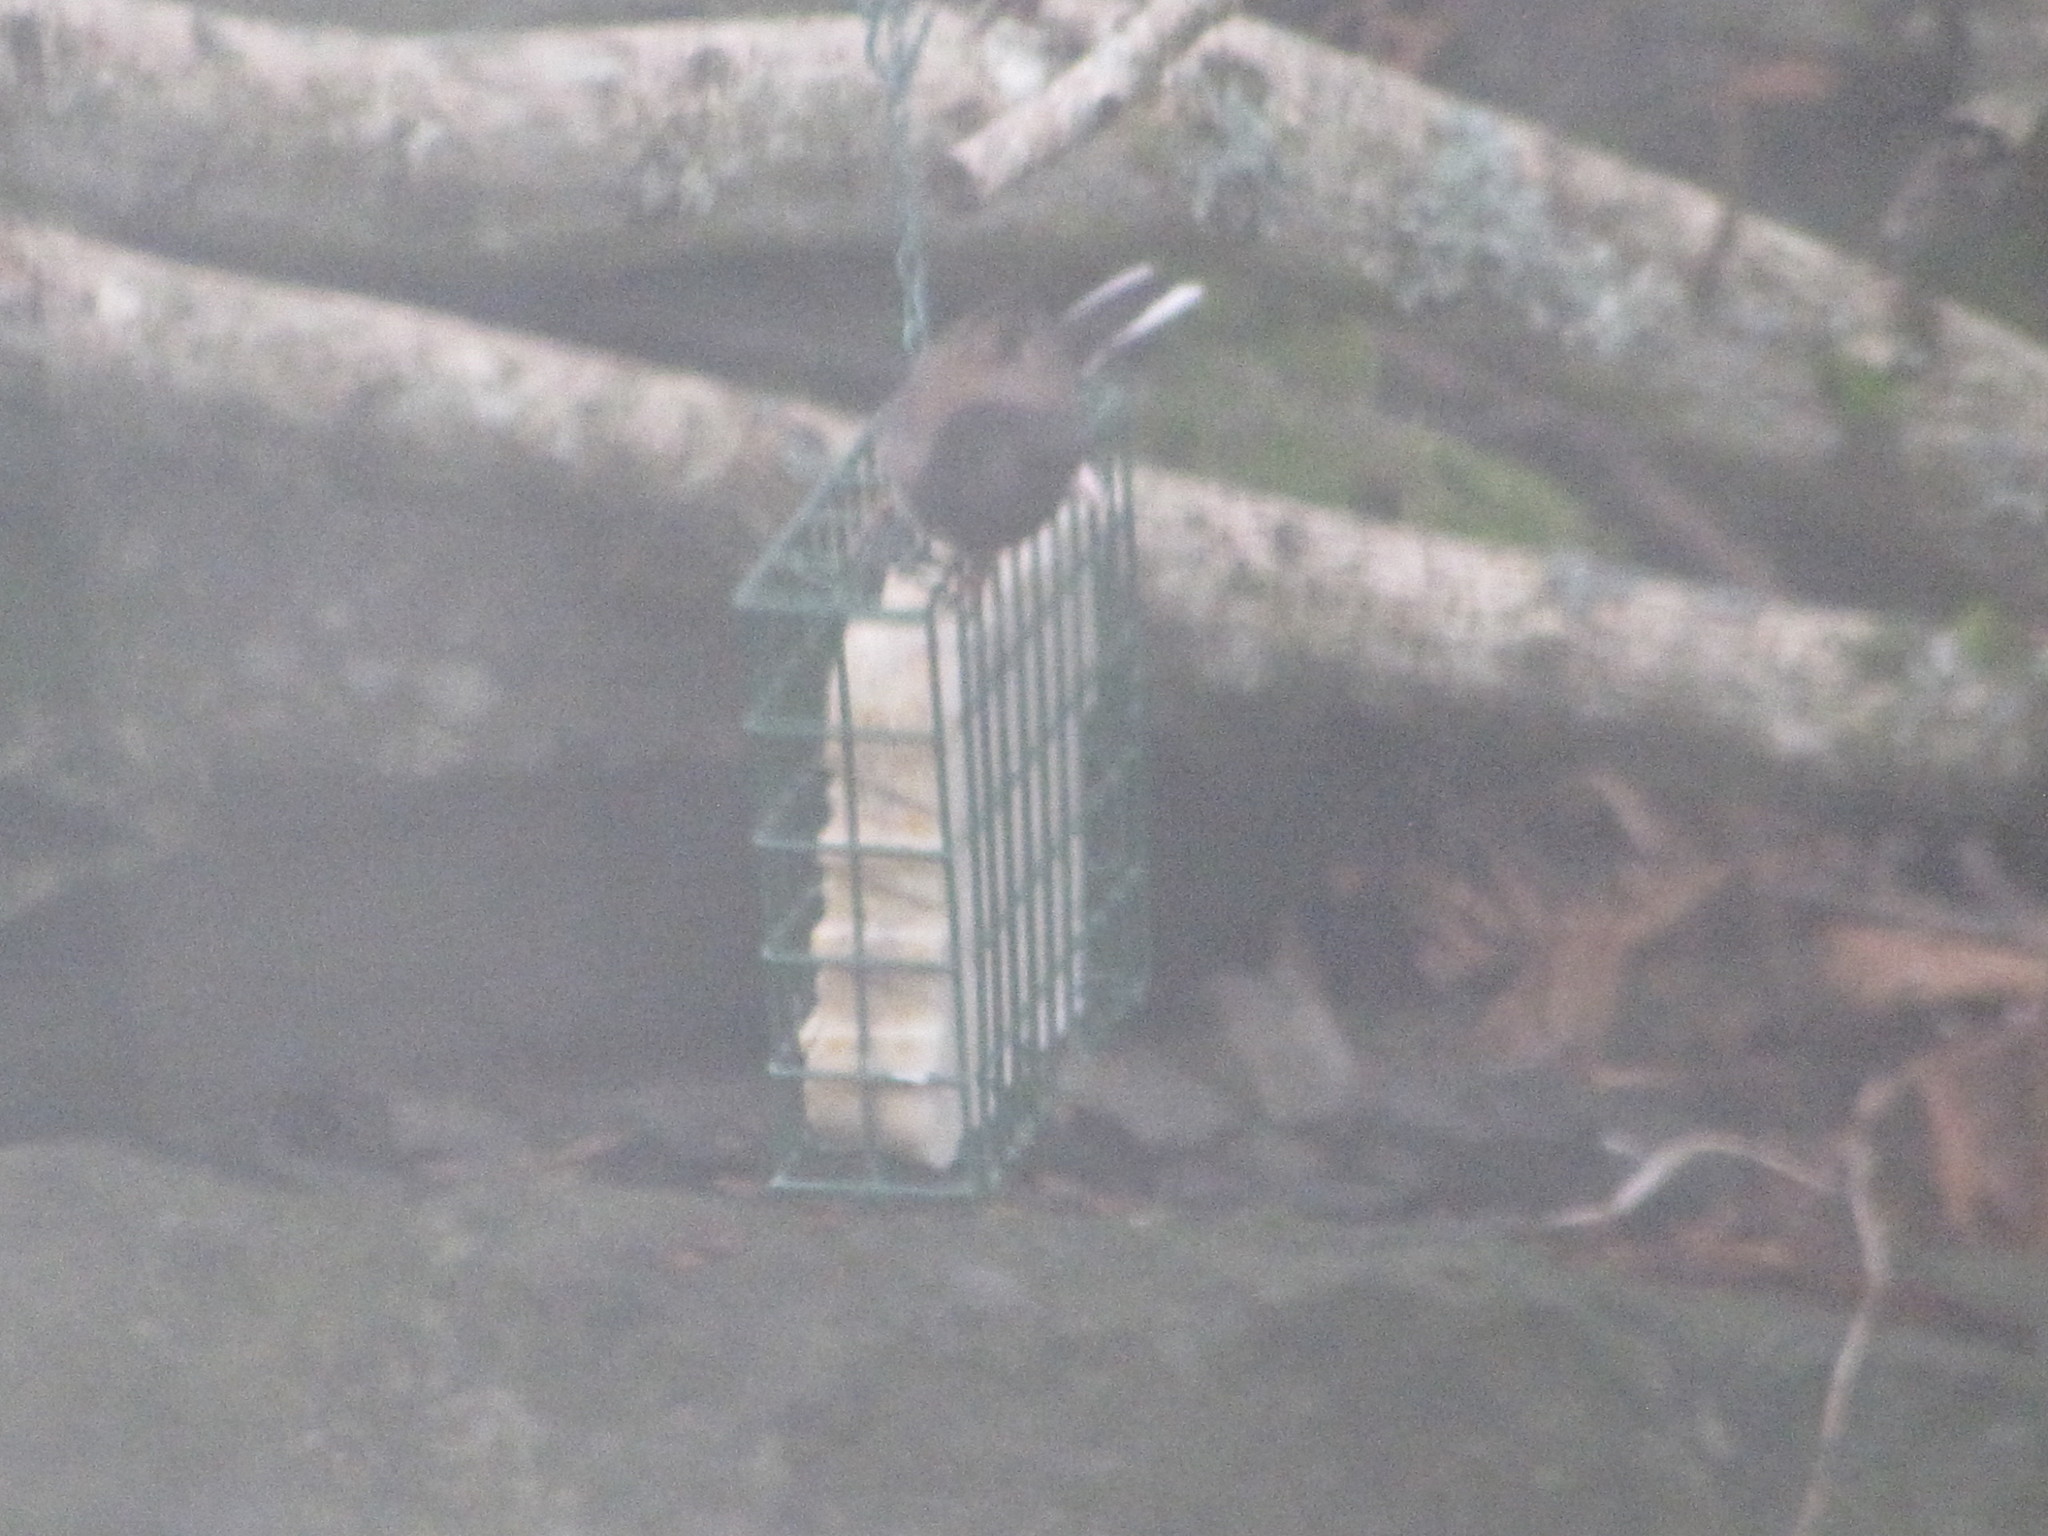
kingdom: Animalia
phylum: Chordata
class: Aves
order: Passeriformes
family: Passerellidae
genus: Junco
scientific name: Junco hyemalis
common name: Dark-eyed junco
